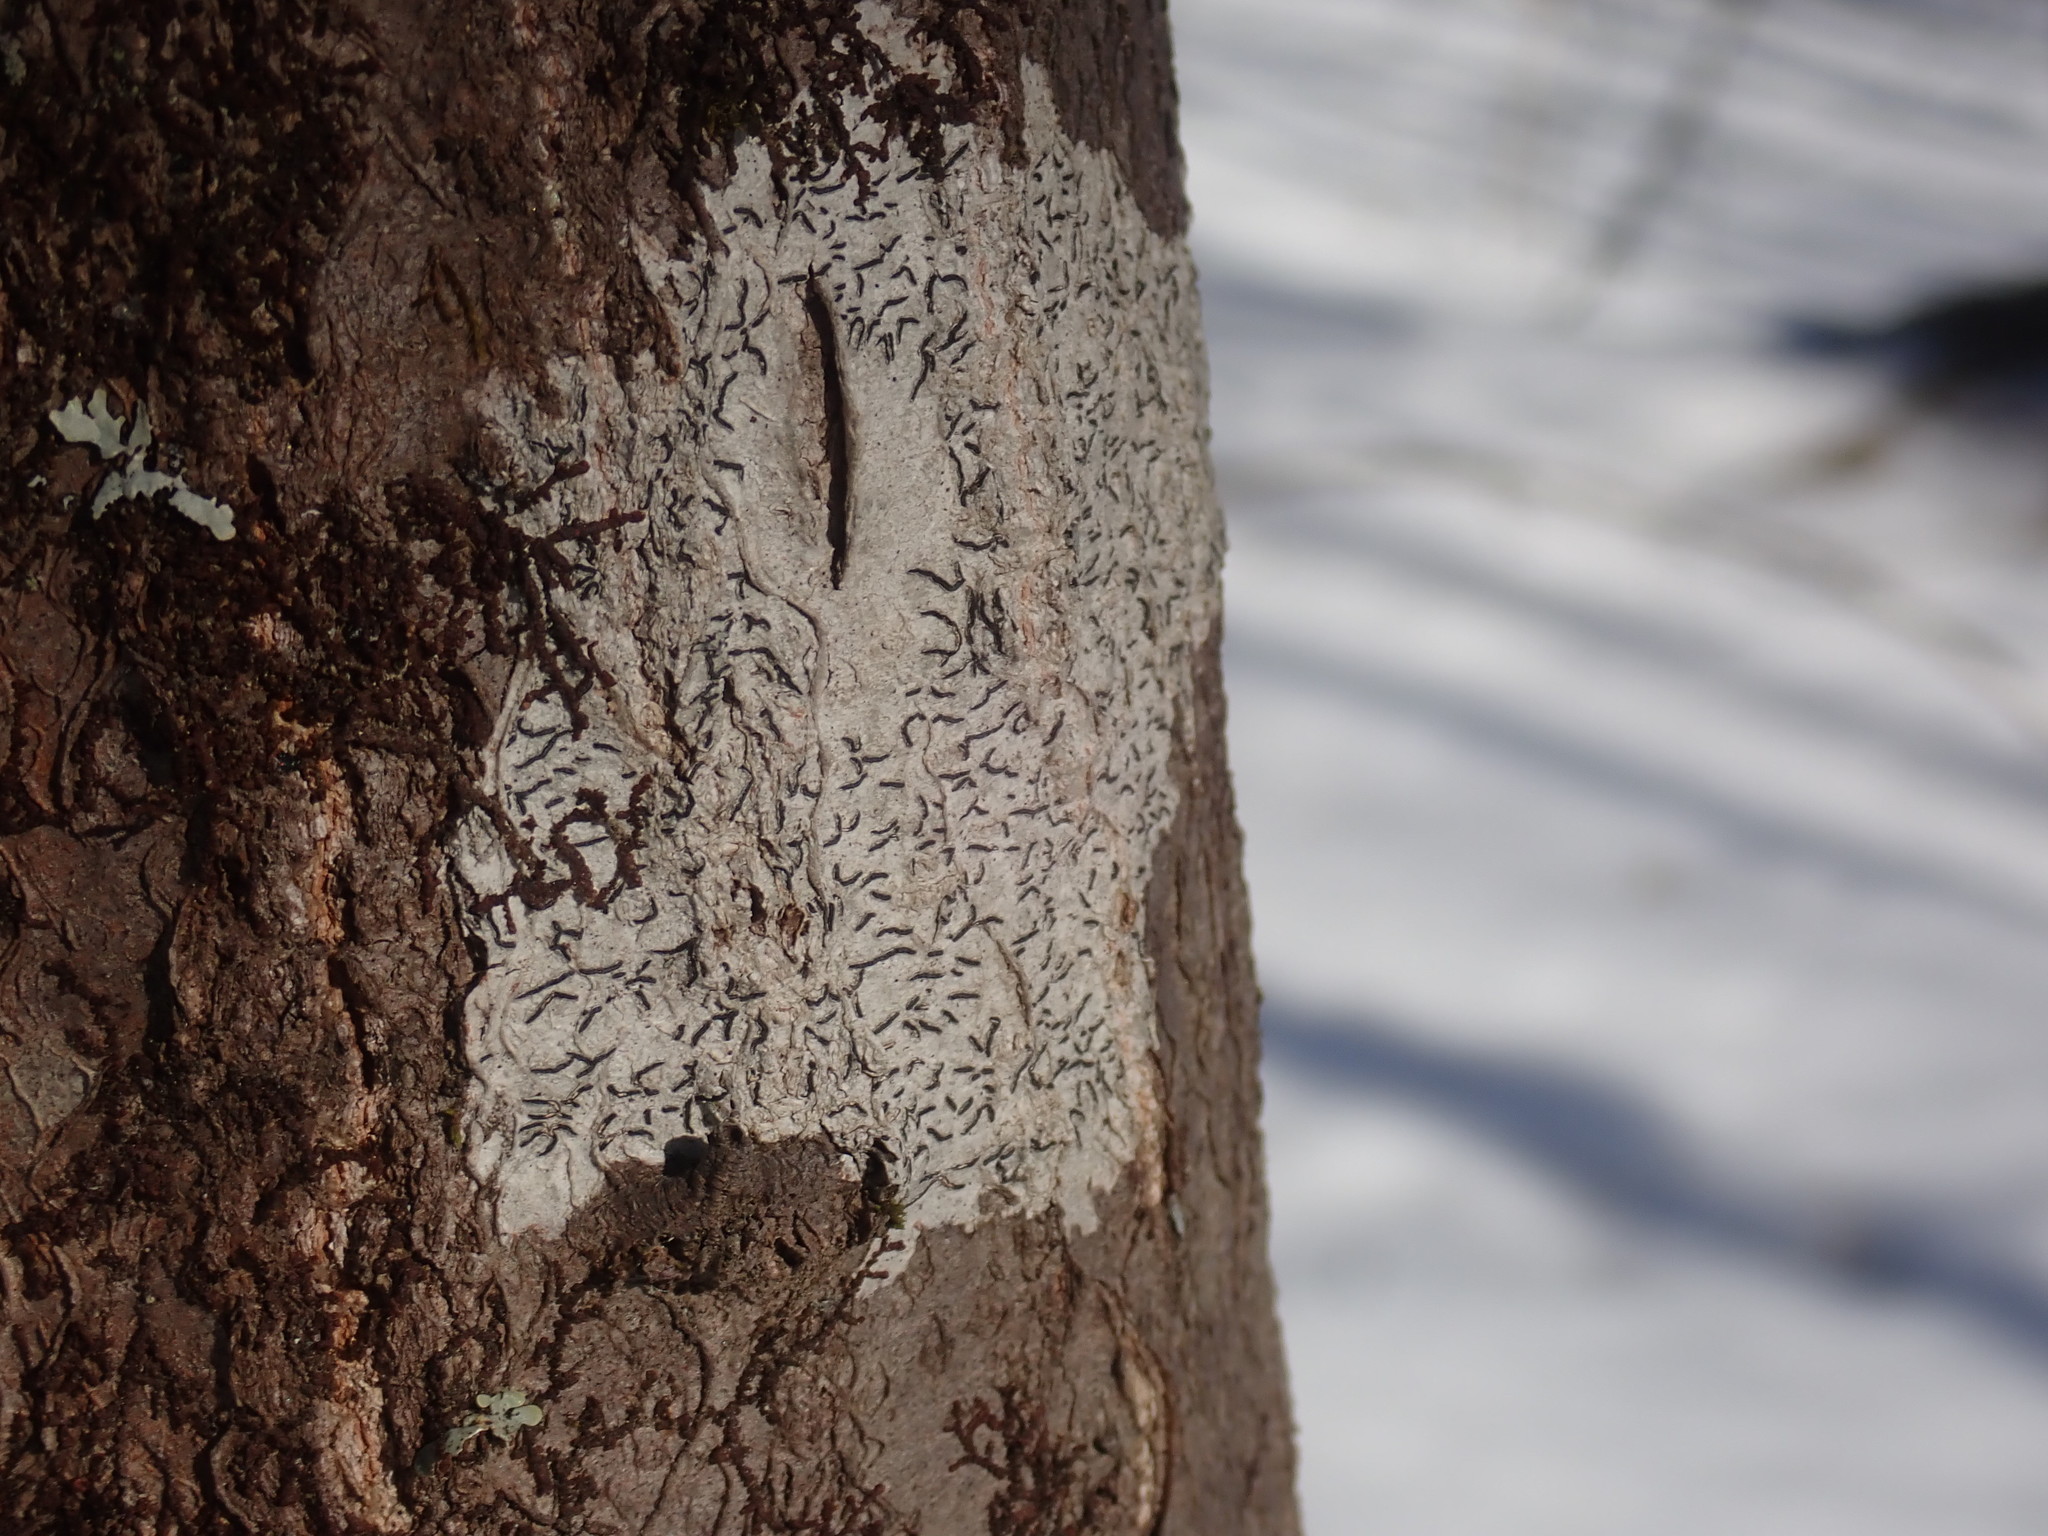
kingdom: Fungi
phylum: Ascomycota
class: Lecanoromycetes
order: Ostropales
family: Graphidaceae
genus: Graphis
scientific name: Graphis scripta
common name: Script lichen
